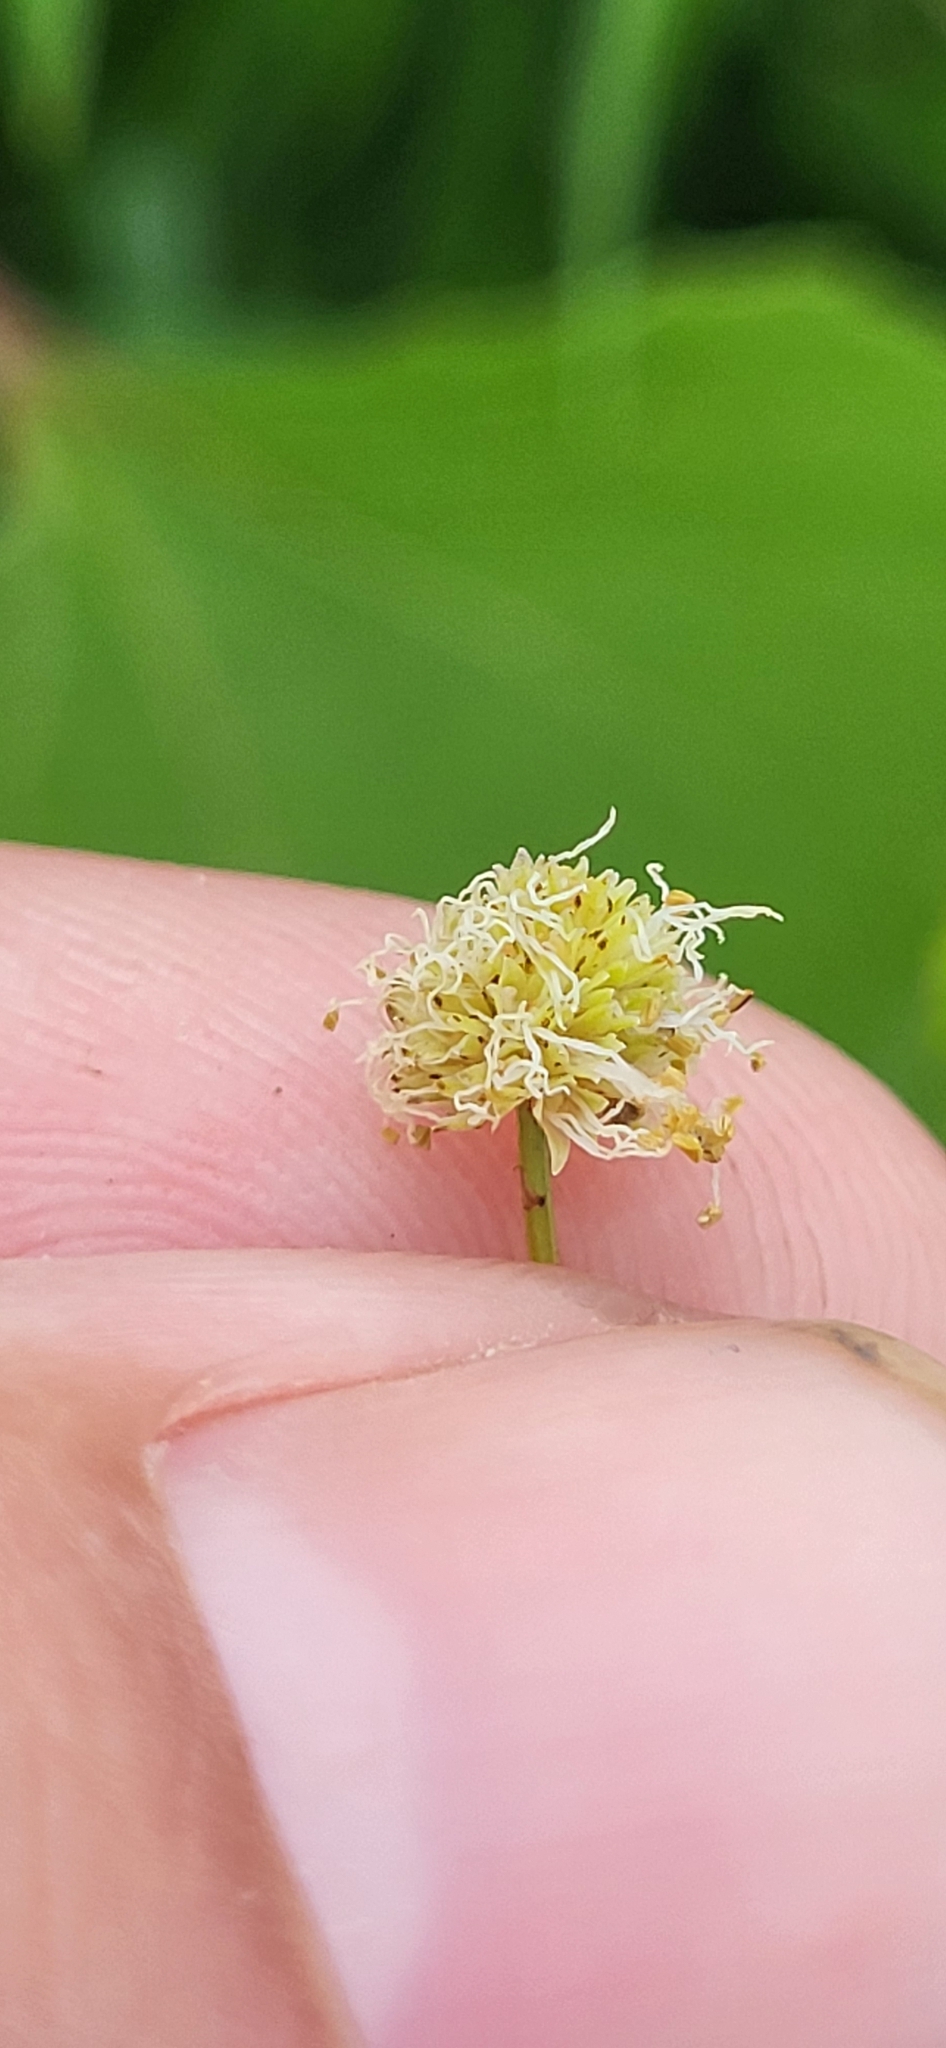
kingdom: Plantae
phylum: Tracheophyta
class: Magnoliopsida
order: Fabales
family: Fabaceae
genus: Desmanthus
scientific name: Desmanthus illinoensis
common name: Illinois bundle-flower
